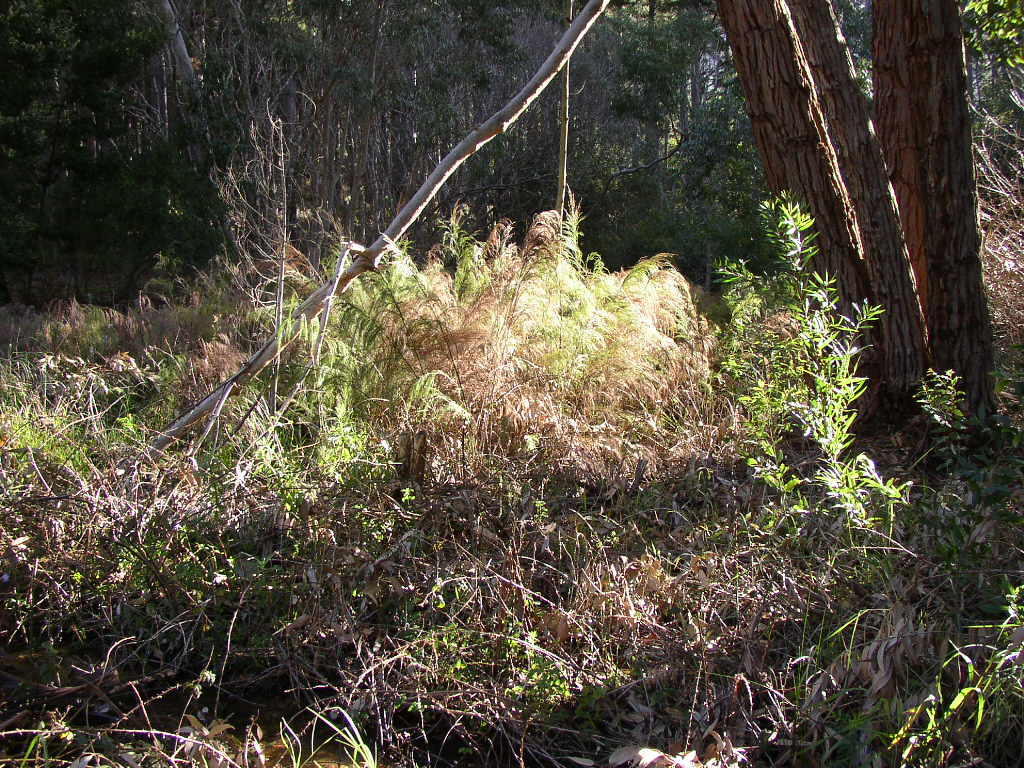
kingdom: Plantae
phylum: Tracheophyta
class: Liliopsida
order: Poales
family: Restionaceae
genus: Restio
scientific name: Restio paniculatus
